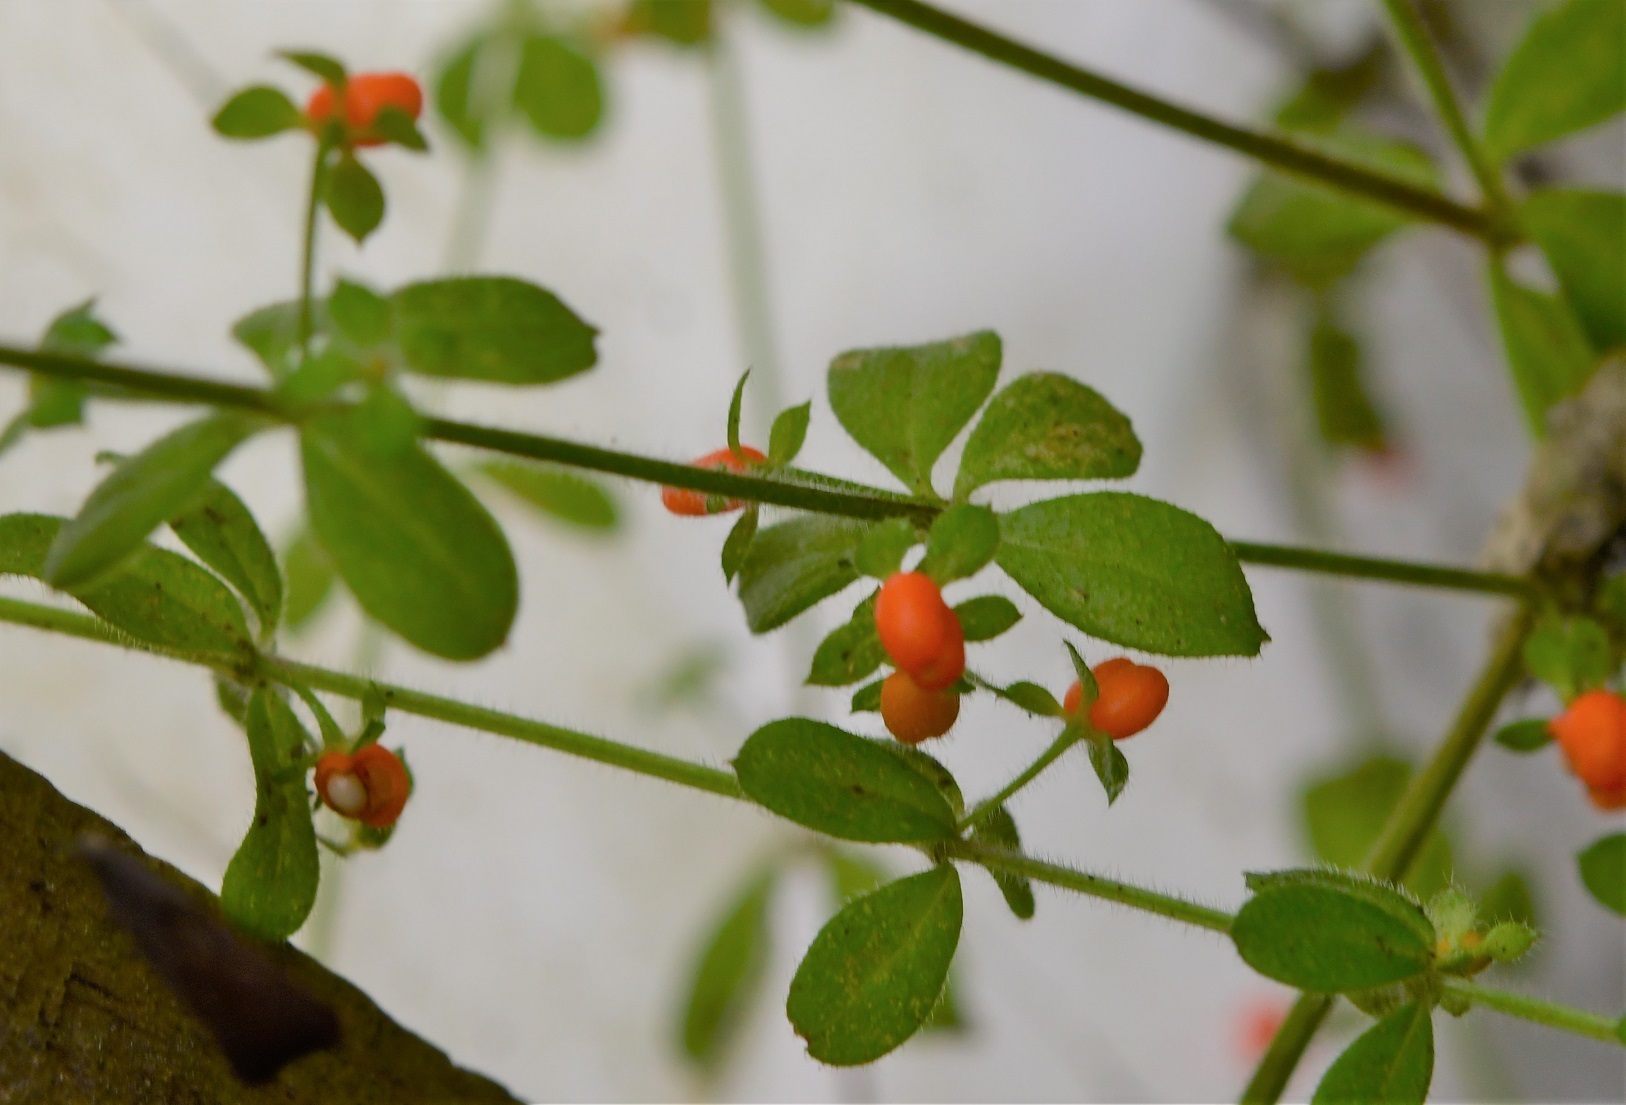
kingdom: Plantae
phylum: Tracheophyta
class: Magnoliopsida
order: Gentianales
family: Rubiaceae
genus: Galium
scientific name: Galium hypocarpium
